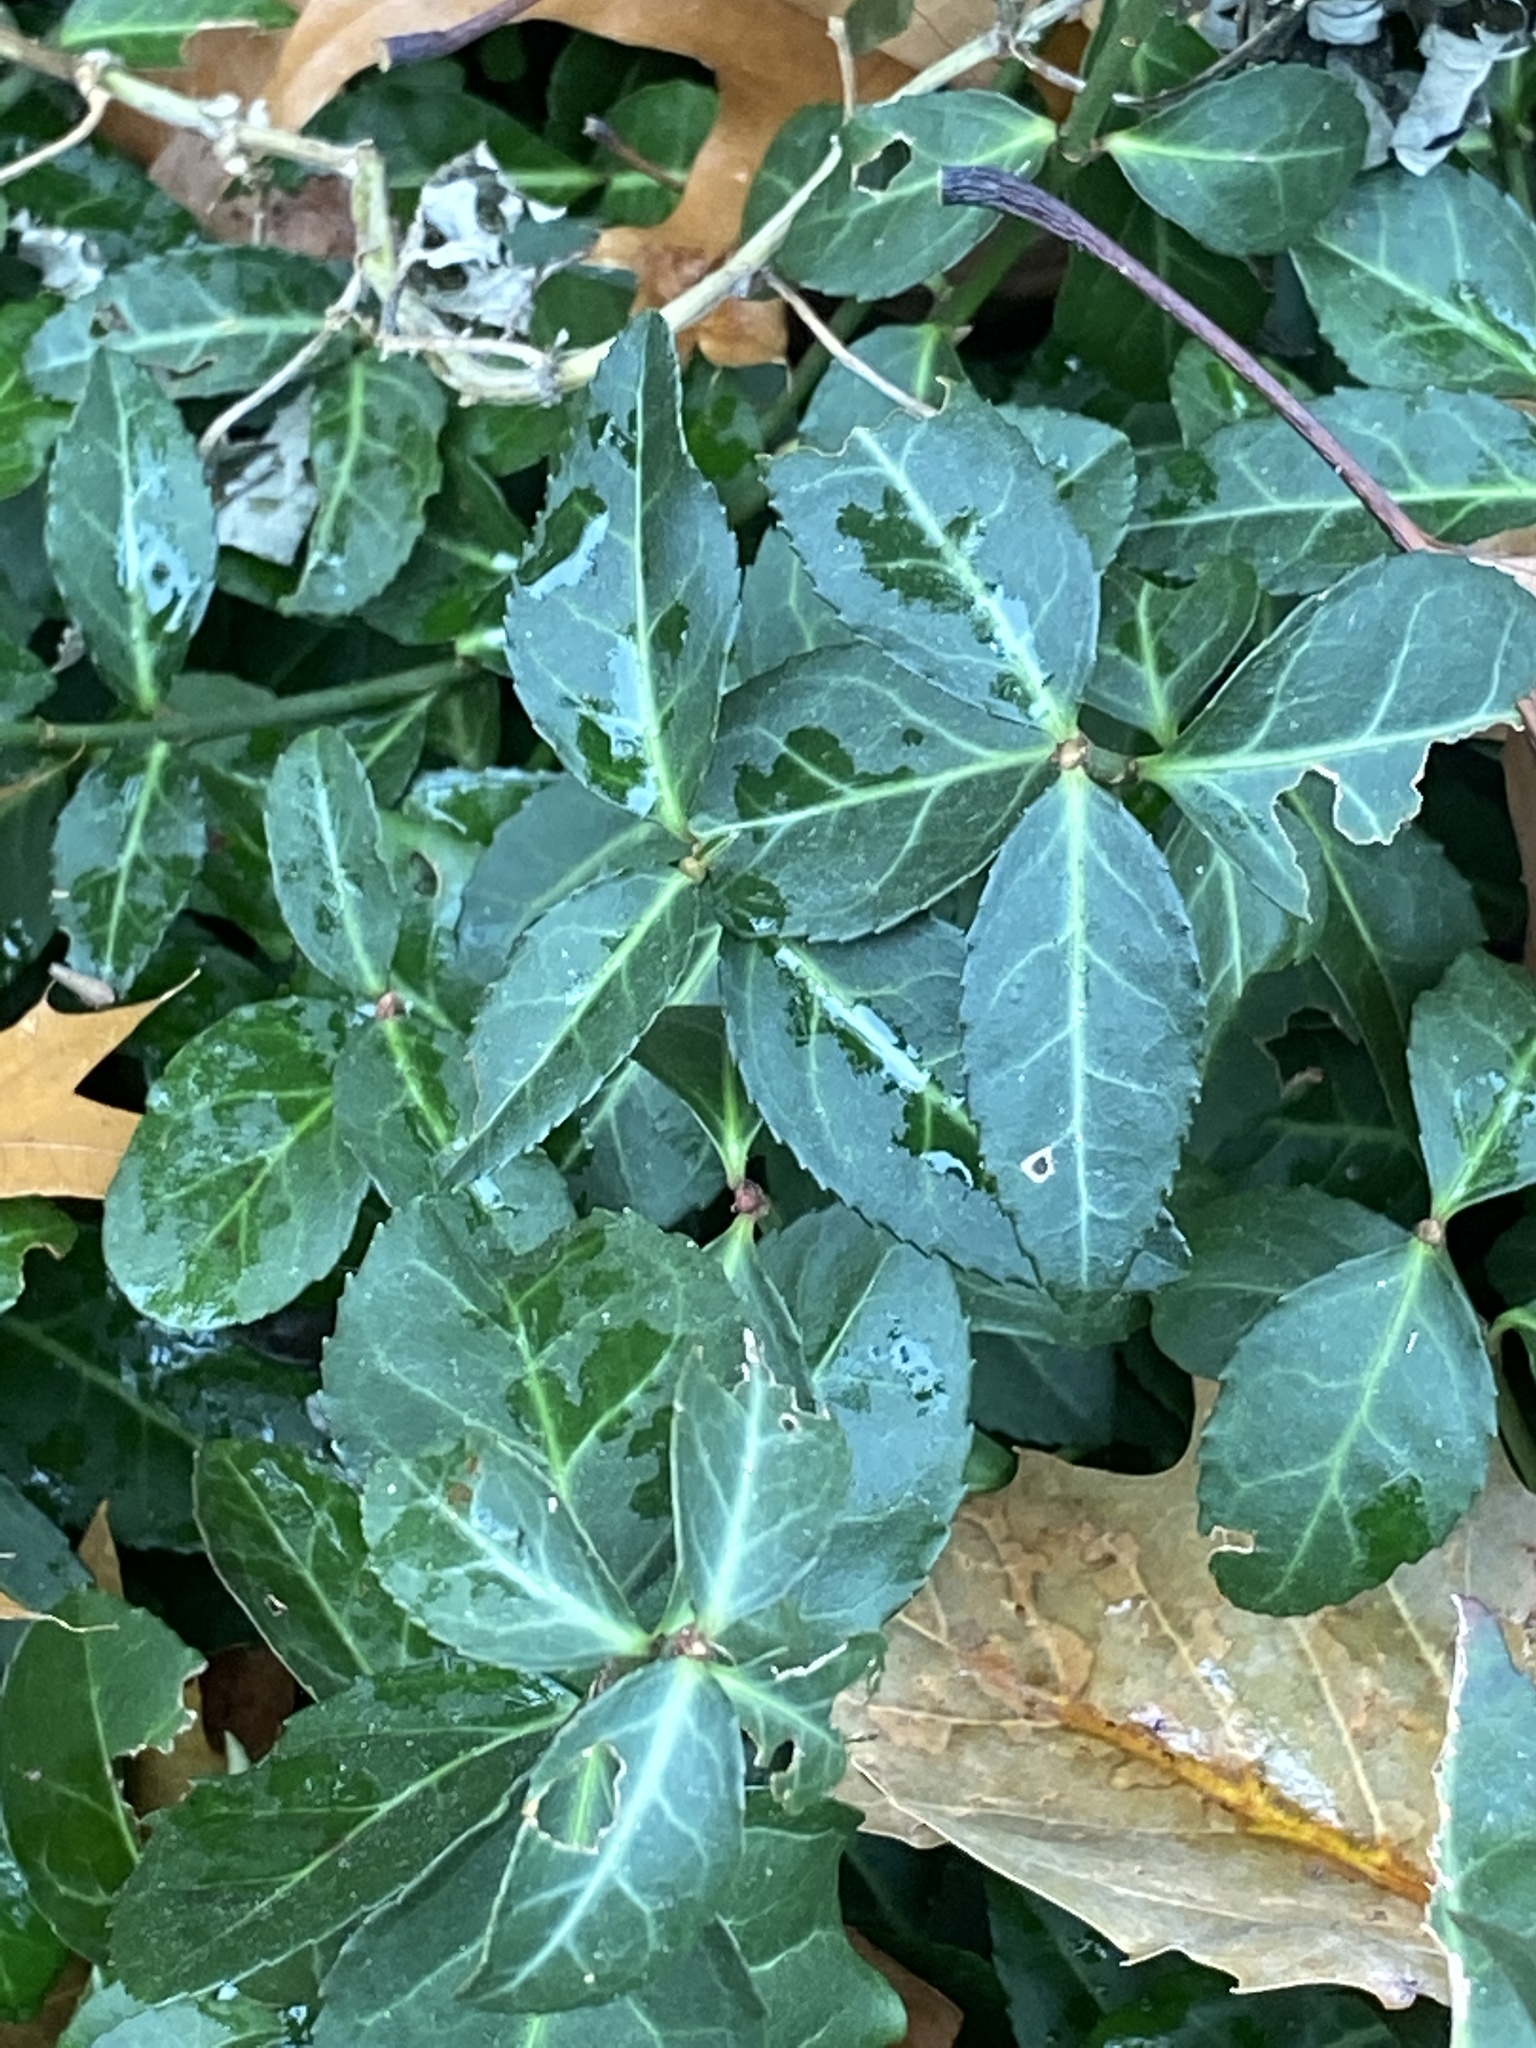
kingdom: Plantae
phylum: Tracheophyta
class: Magnoliopsida
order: Celastrales
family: Celastraceae
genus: Euonymus
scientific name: Euonymus fortunei
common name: Climbing euonymus
